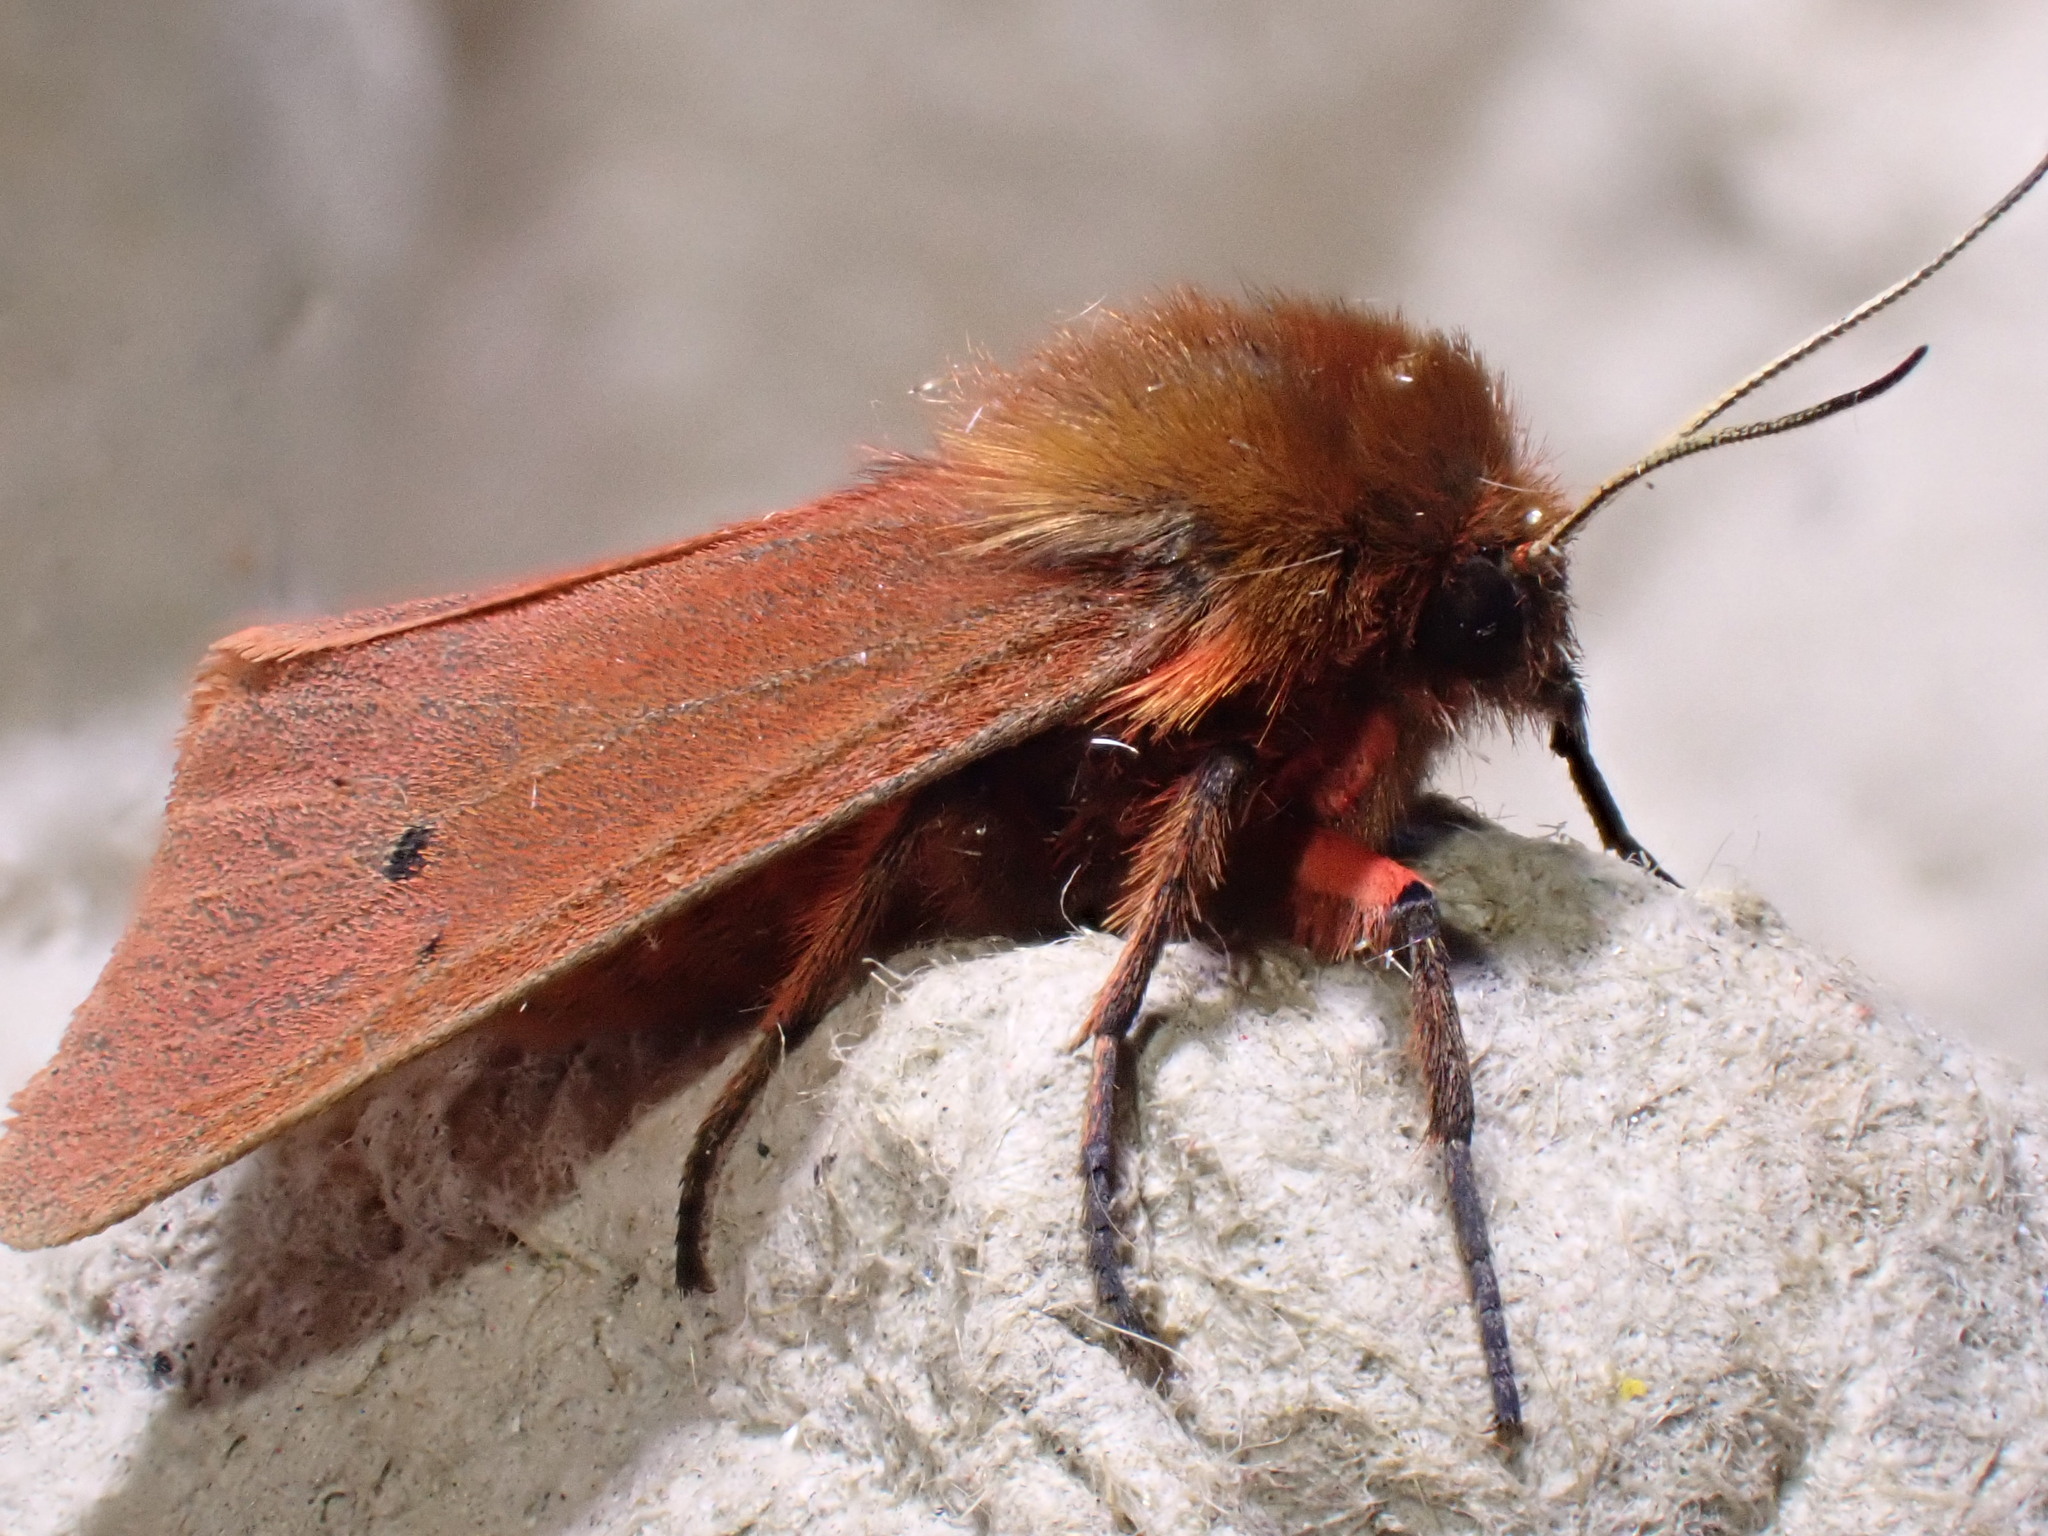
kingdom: Animalia
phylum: Arthropoda
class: Insecta
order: Lepidoptera
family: Erebidae
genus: Phragmatobia
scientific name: Phragmatobia fuliginosa
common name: Ruby tiger
